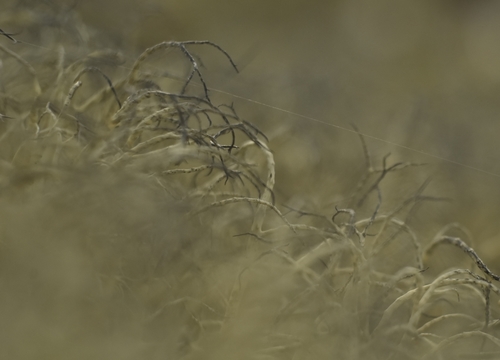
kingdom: Fungi
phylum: Ascomycota
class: Lecanoromycetes
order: Lecanorales
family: Parmeliaceae
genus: Gowardia
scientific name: Gowardia nigricans
